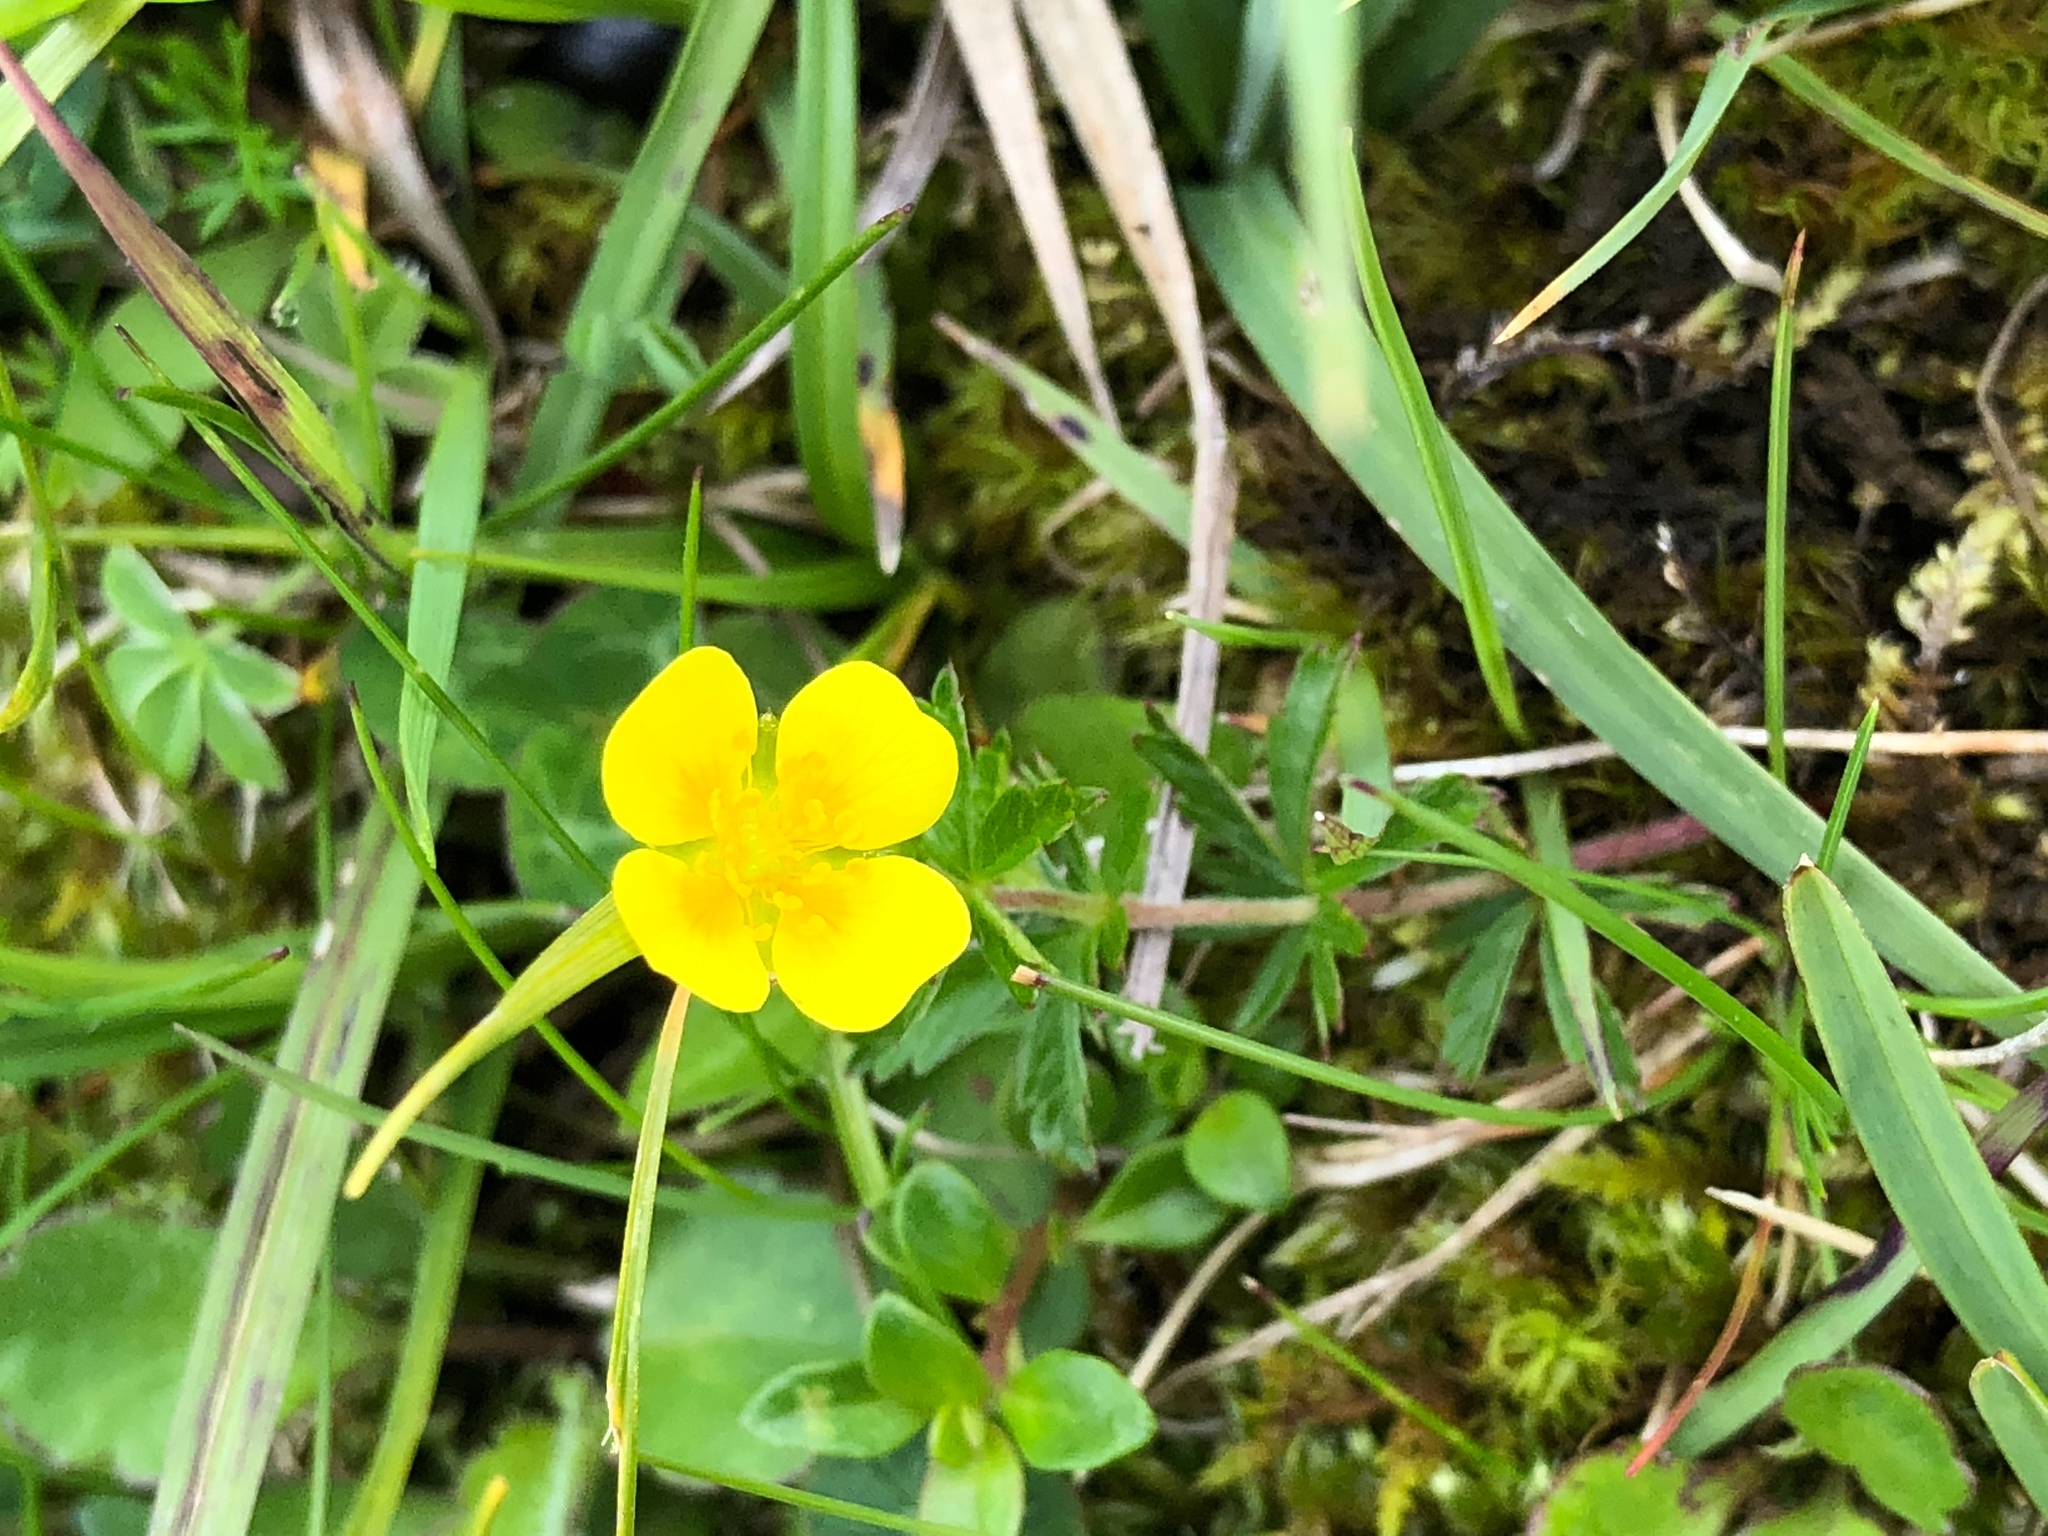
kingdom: Plantae
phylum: Tracheophyta
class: Magnoliopsida
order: Rosales
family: Rosaceae
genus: Potentilla
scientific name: Potentilla erecta
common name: Tormentil
